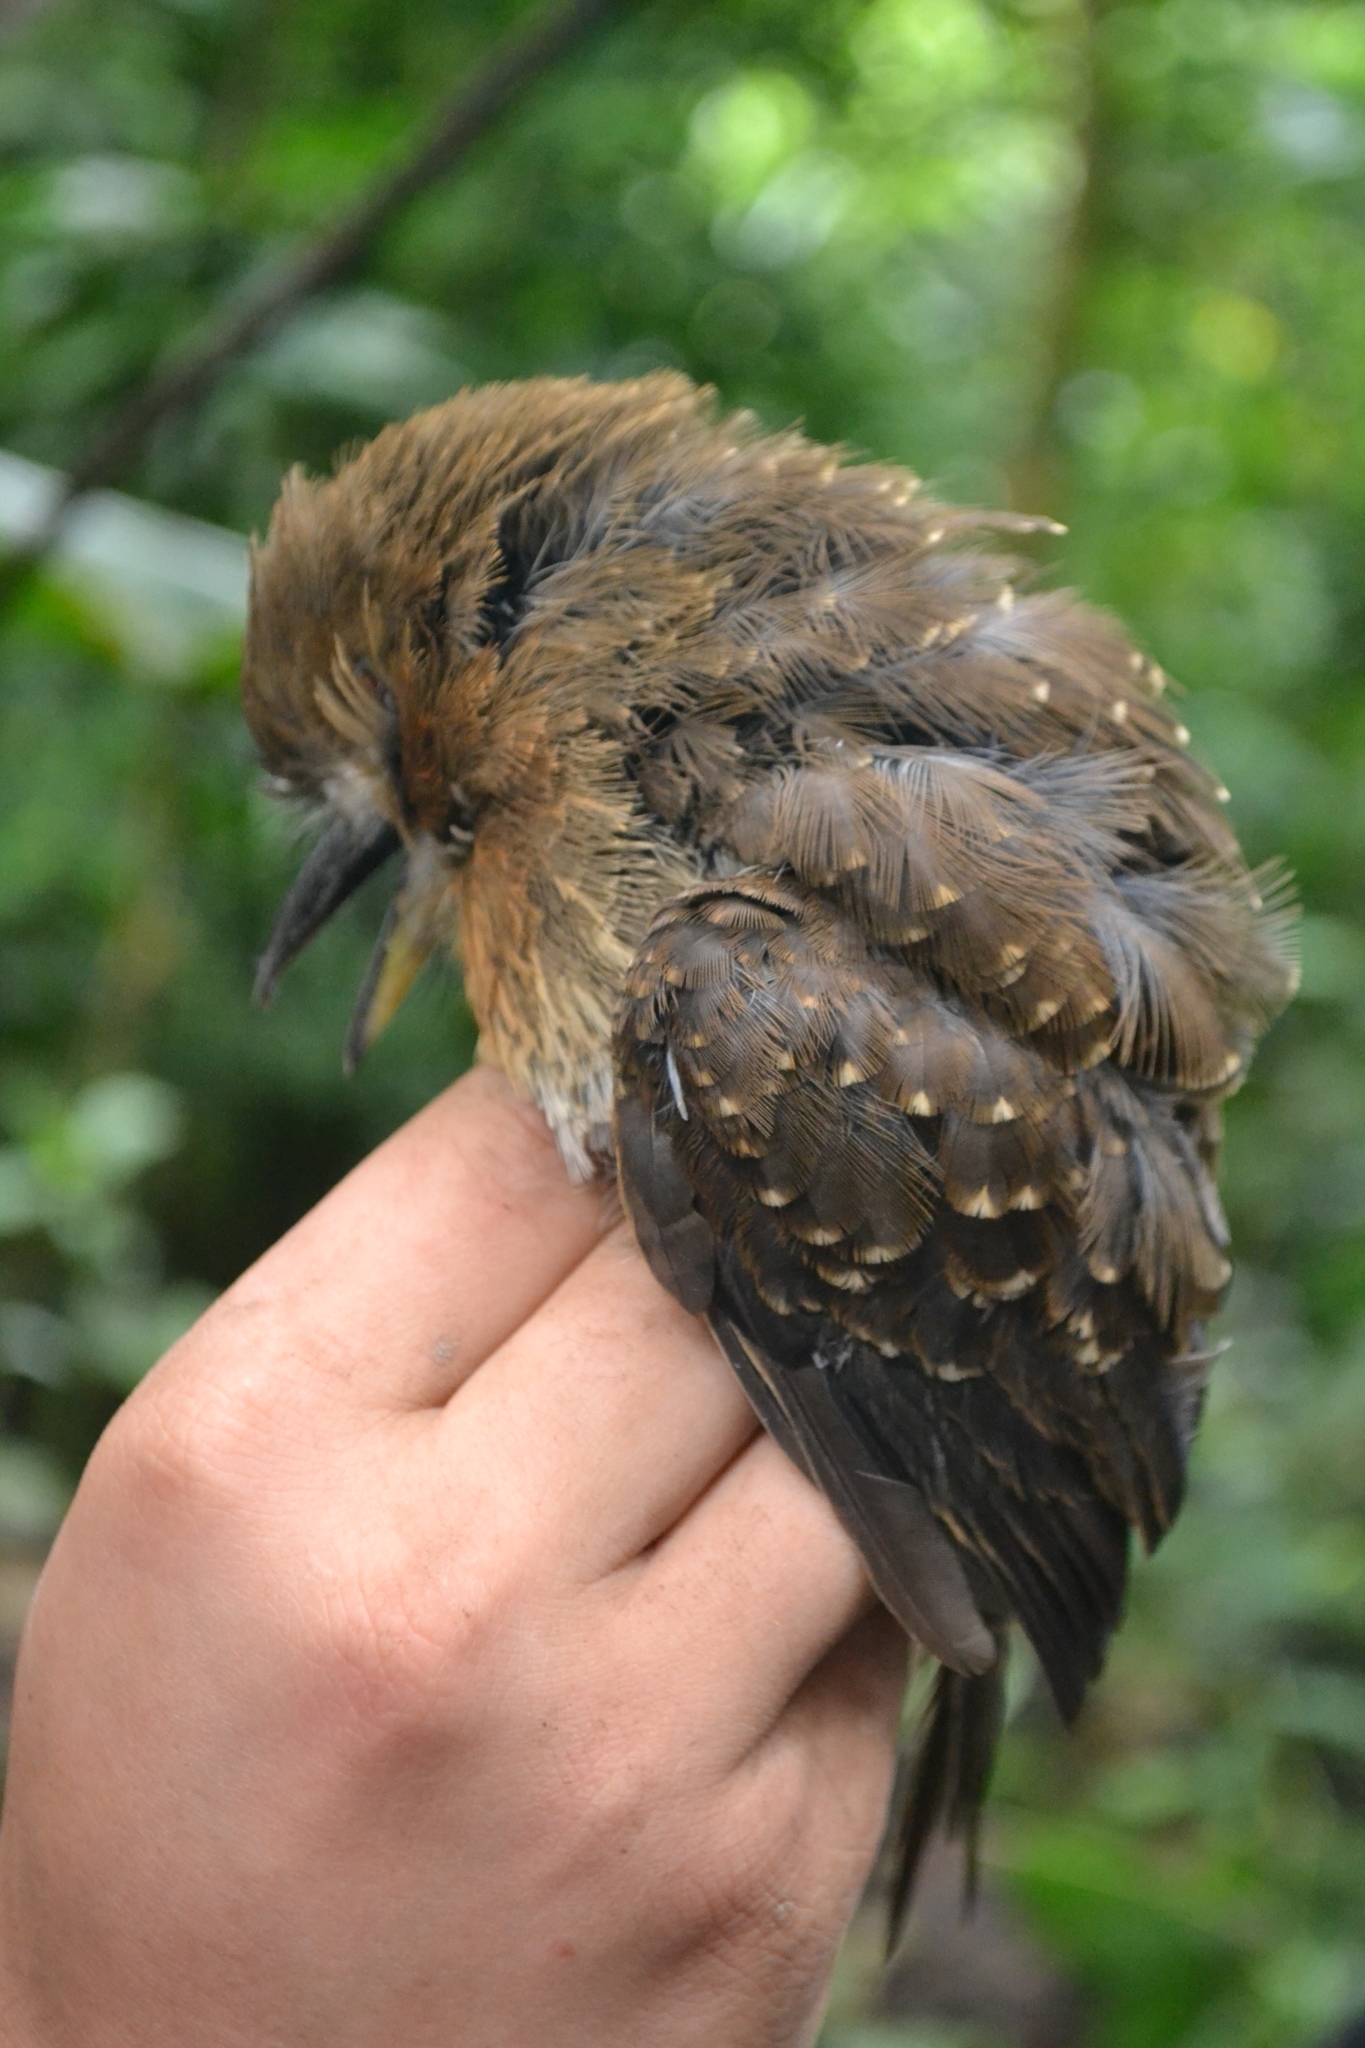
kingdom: Animalia
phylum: Chordata
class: Aves
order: Piciformes
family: Bucconidae
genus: Malacoptila
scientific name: Malacoptila mystacalis
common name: Moustached puffbird
